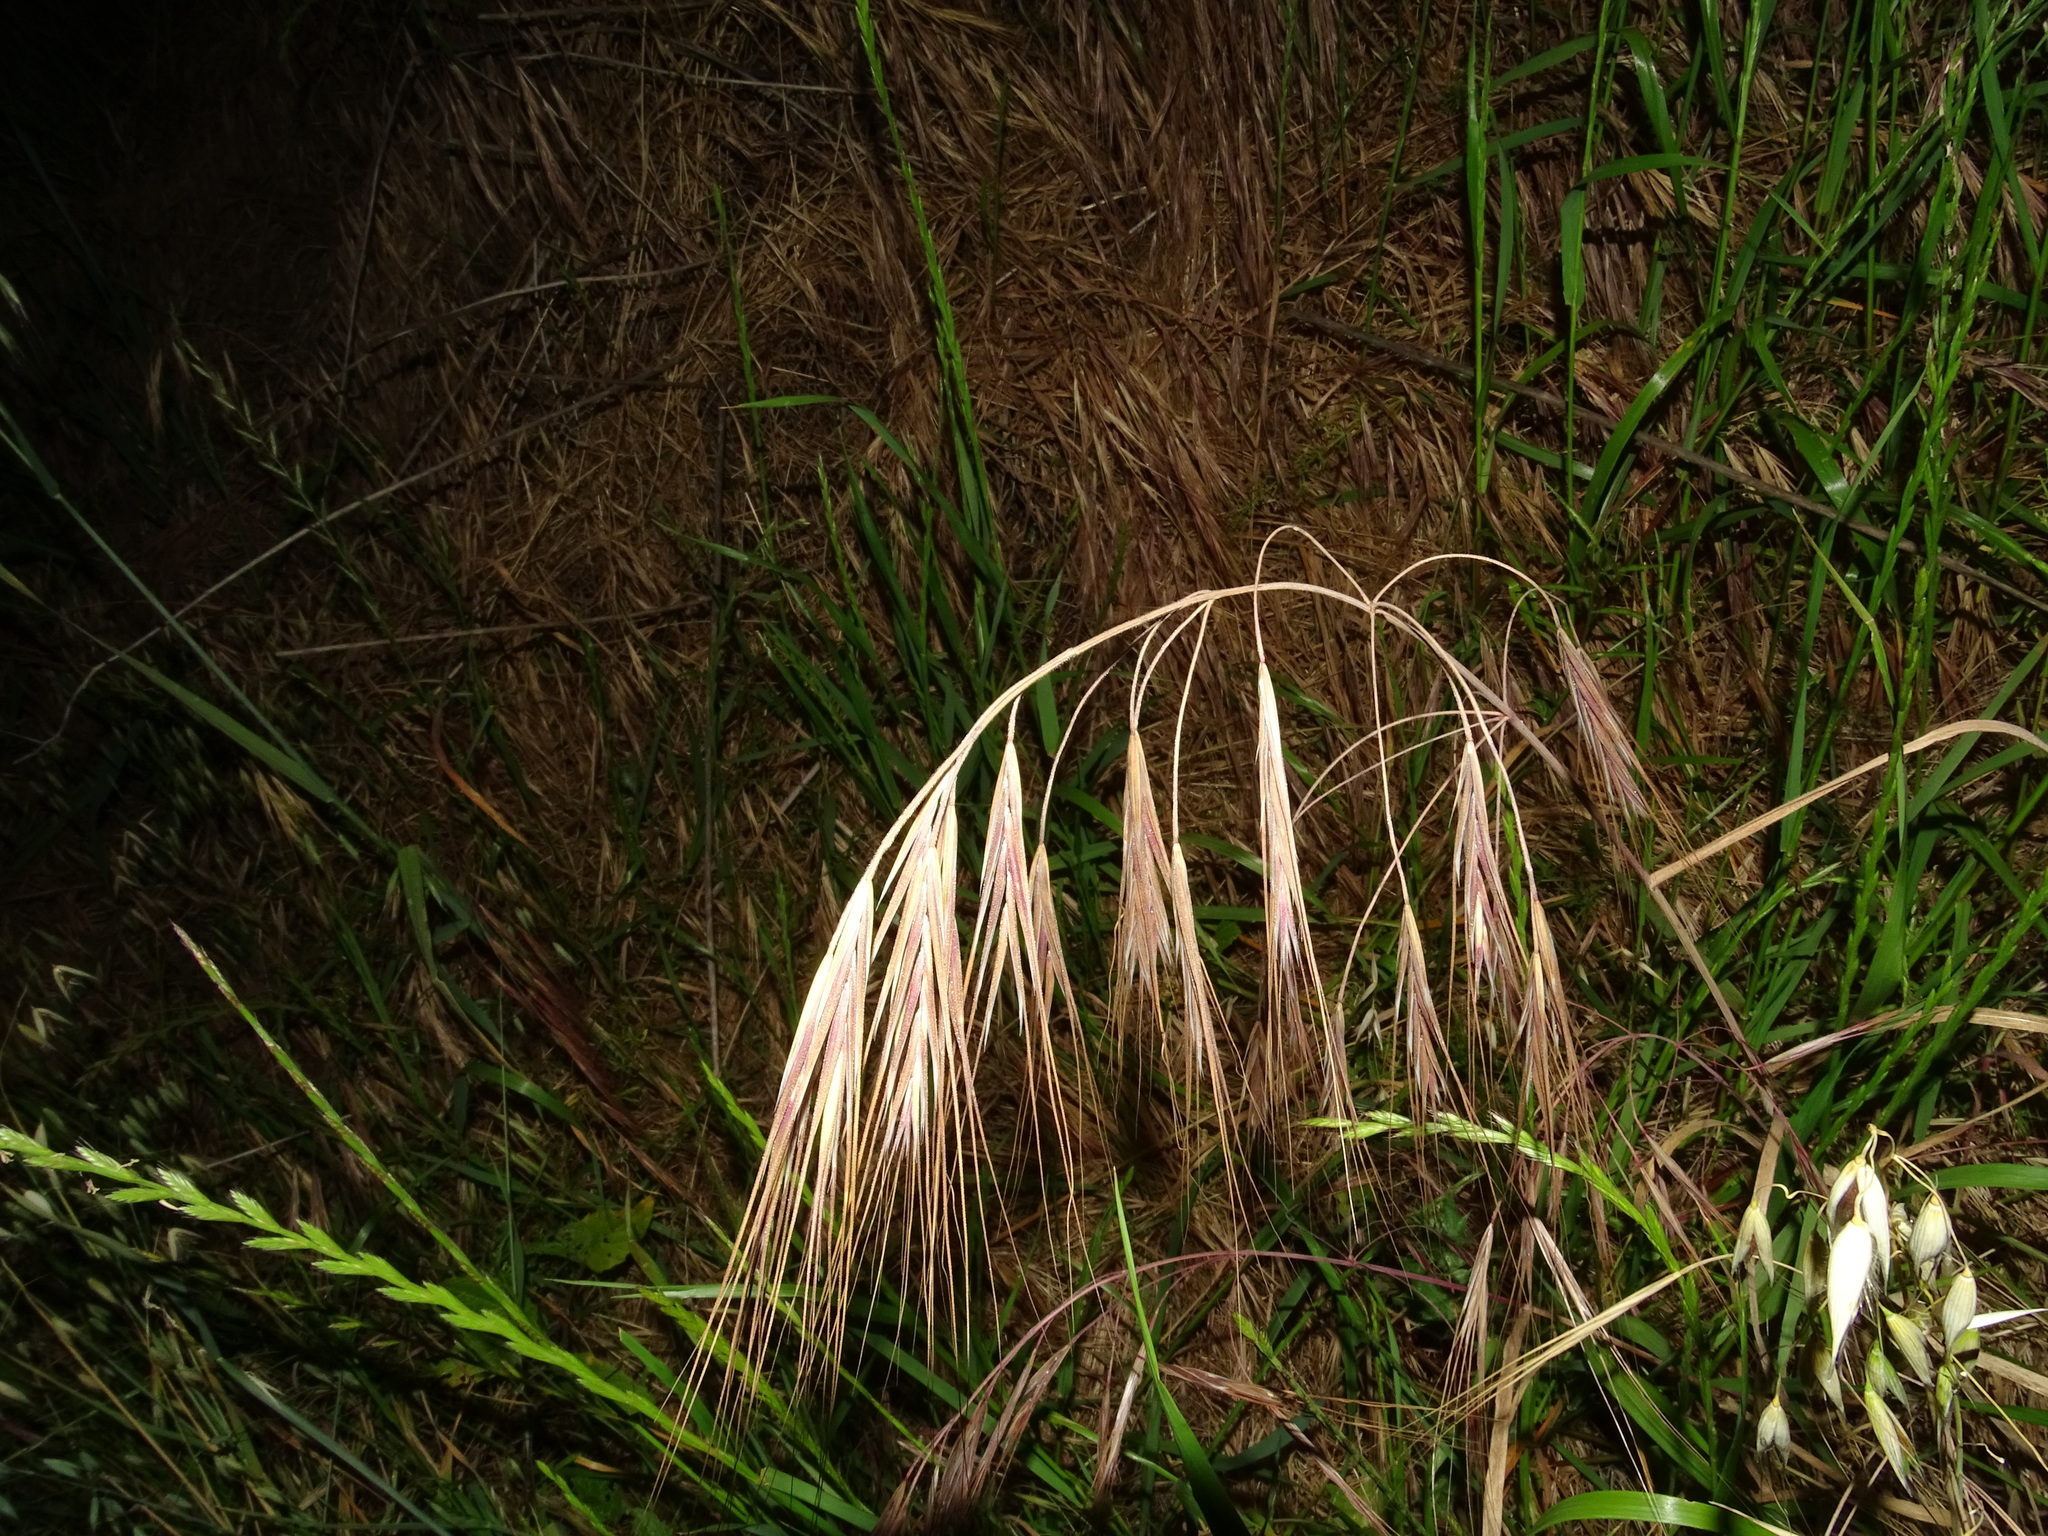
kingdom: Plantae
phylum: Tracheophyta
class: Liliopsida
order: Poales
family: Poaceae
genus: Bromus
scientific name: Bromus diandrus
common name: Ripgut brome
